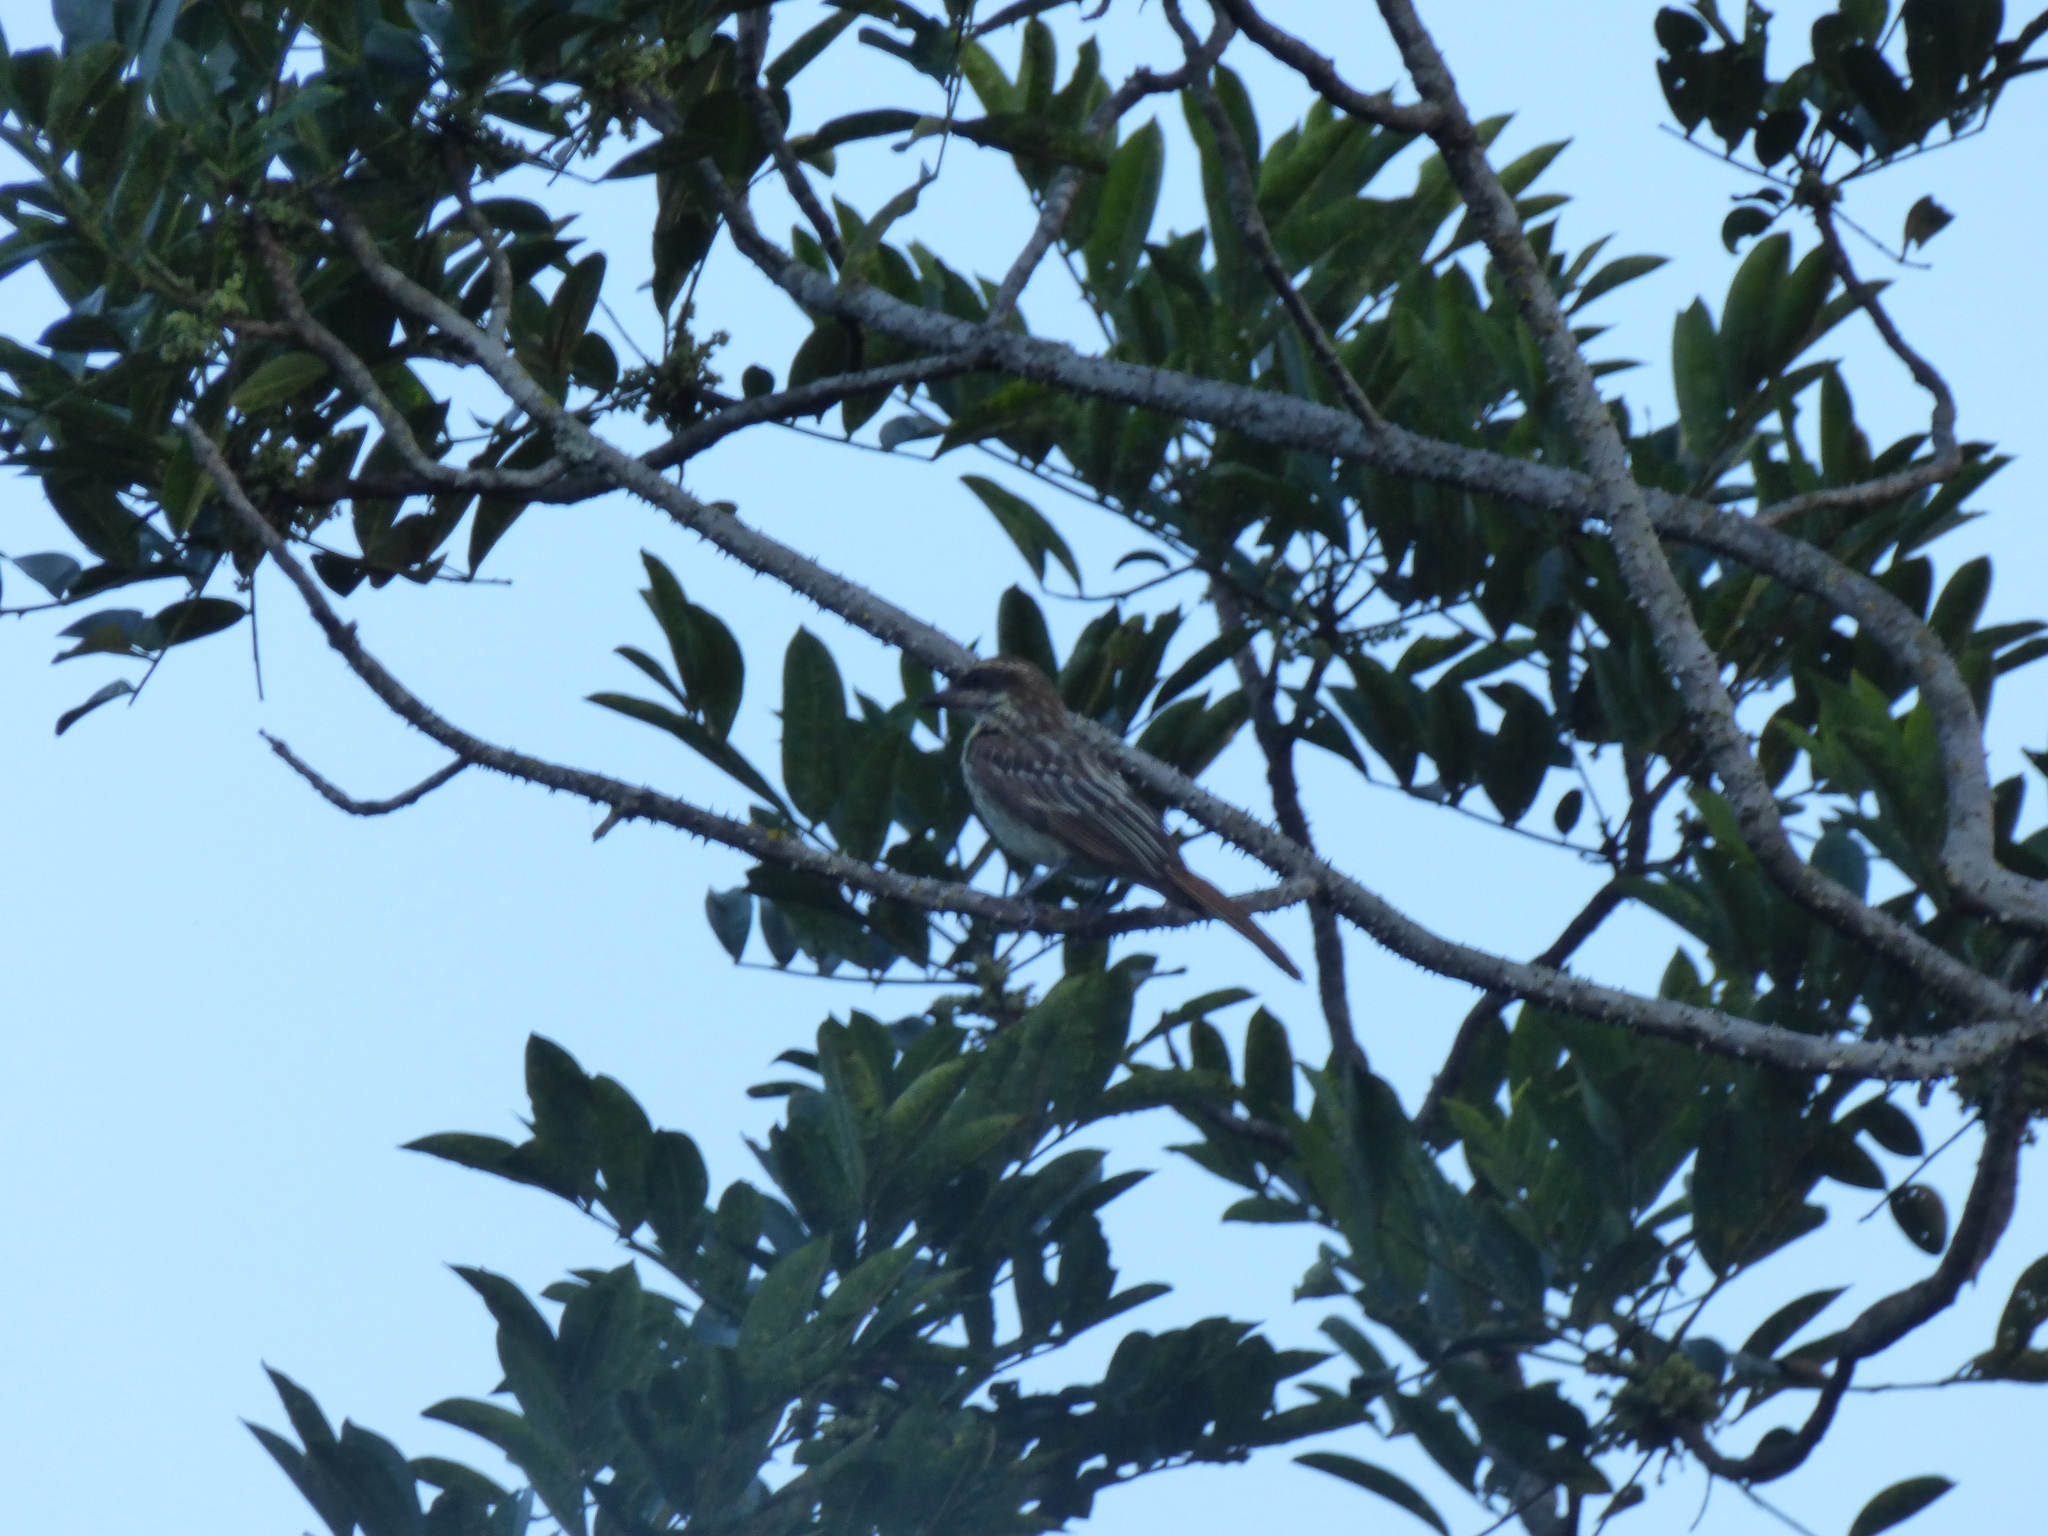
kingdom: Animalia
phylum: Chordata
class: Aves
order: Passeriformes
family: Tyrannidae
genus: Myiodynastes
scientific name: Myiodynastes maculatus
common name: Streaked flycatcher
